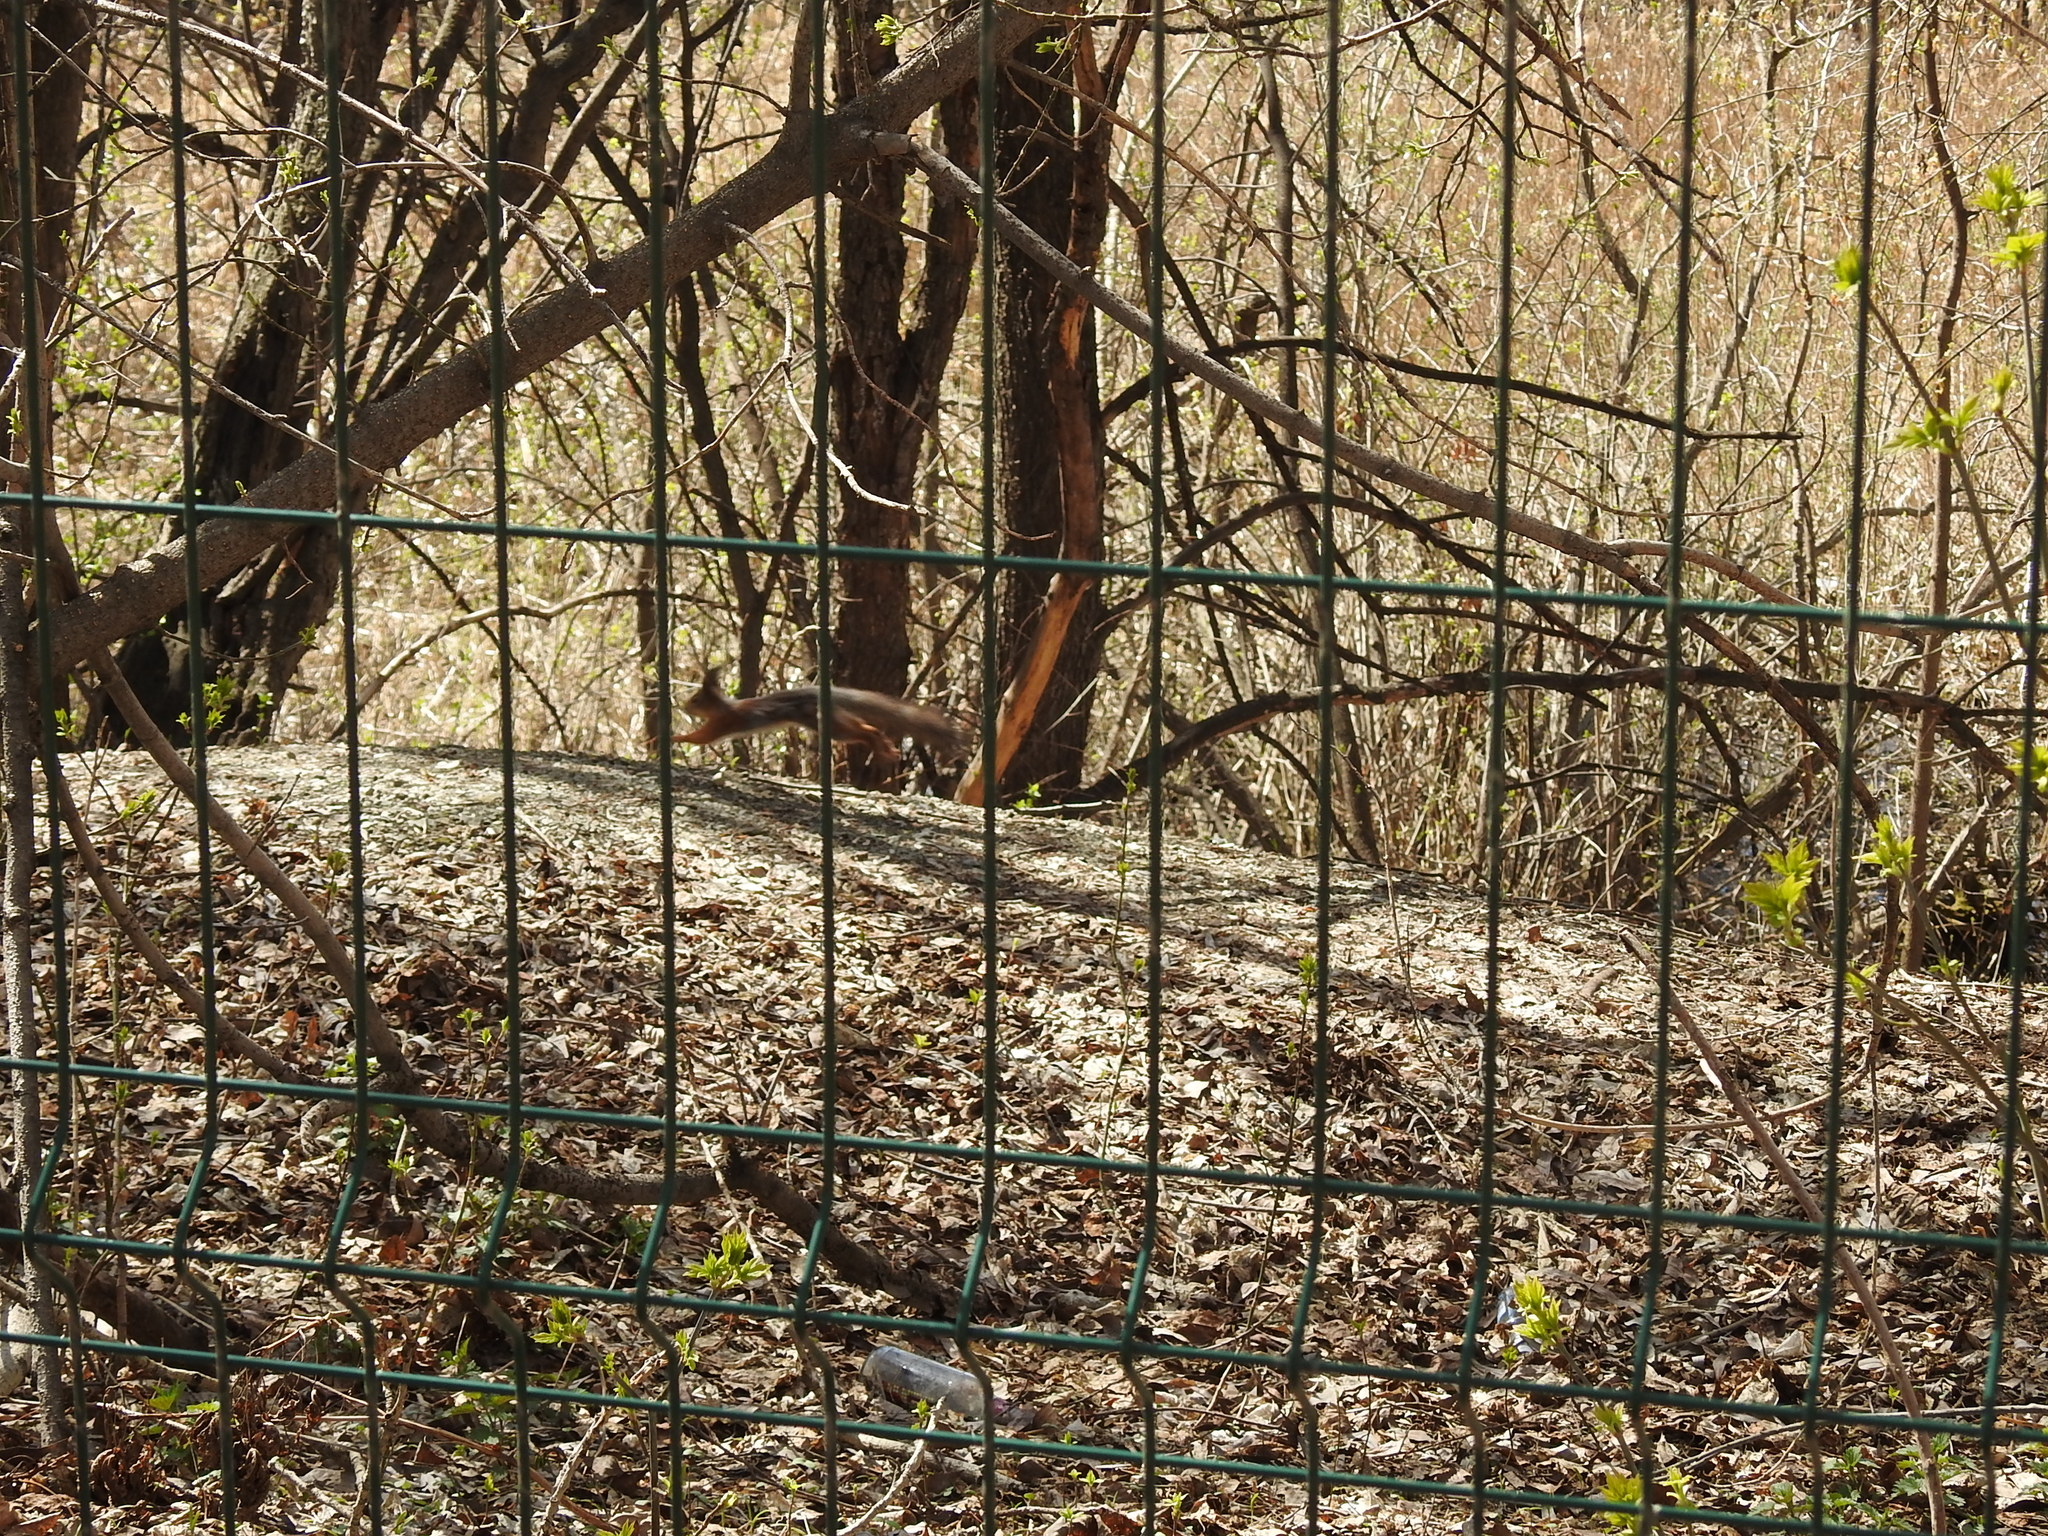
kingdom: Animalia
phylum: Chordata
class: Mammalia
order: Rodentia
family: Sciuridae
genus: Sciurus
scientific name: Sciurus vulgaris
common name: Eurasian red squirrel
